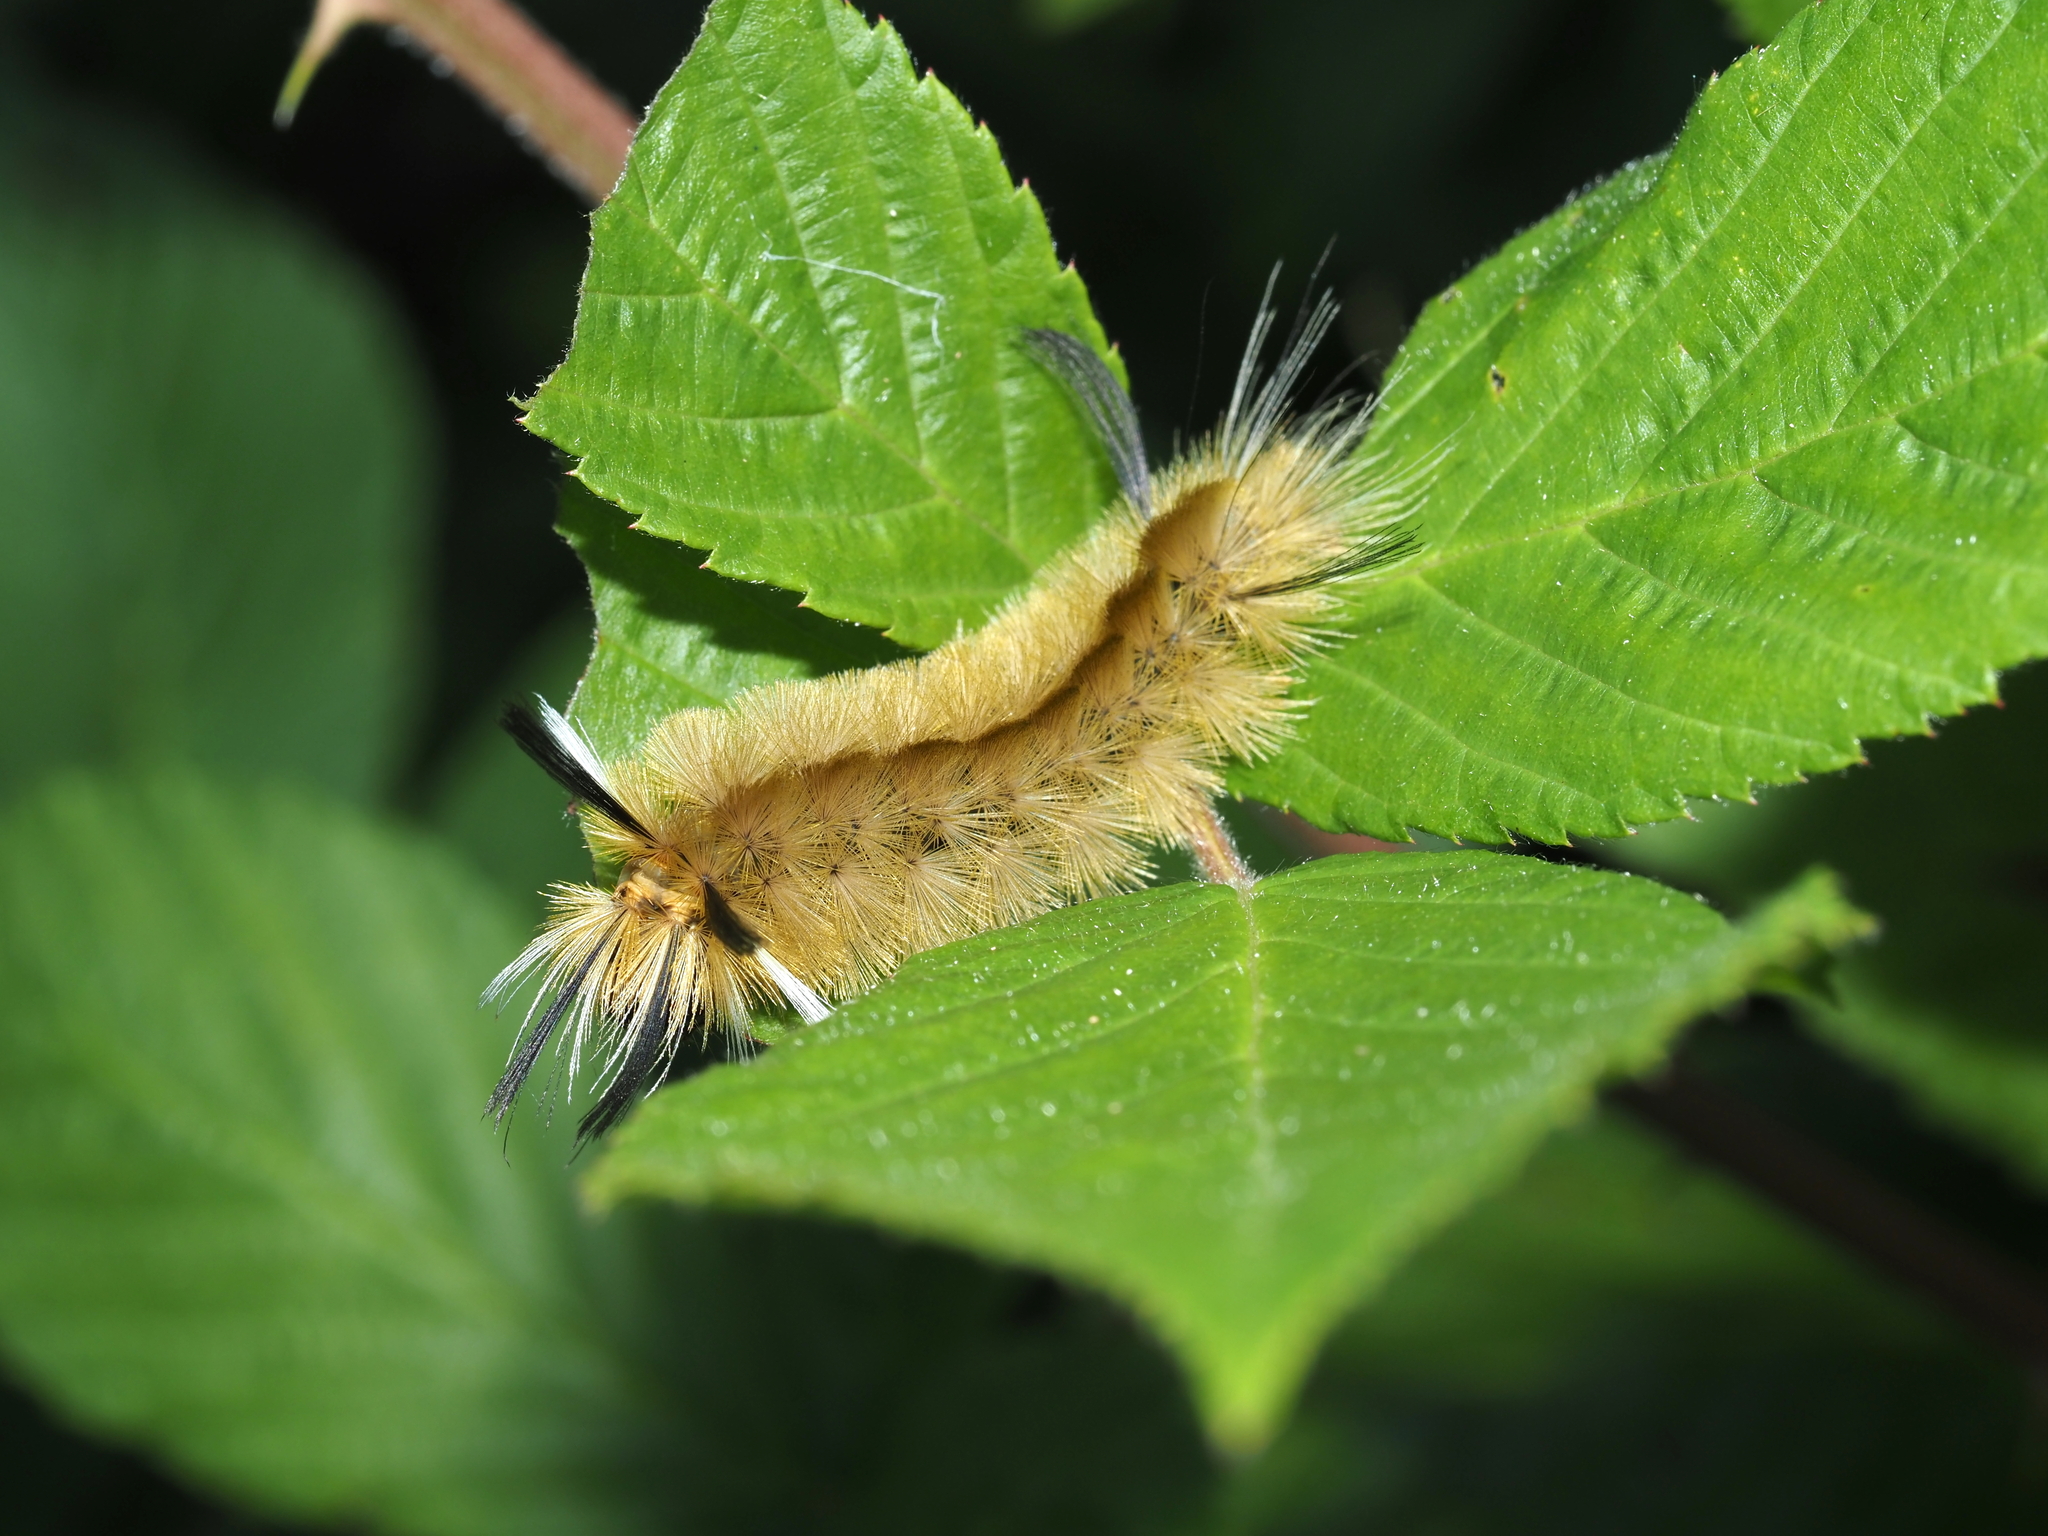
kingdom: Animalia
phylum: Arthropoda
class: Insecta
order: Lepidoptera
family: Erebidae
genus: Halysidota
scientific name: Halysidota tessellaris
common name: Banded tussock moth
